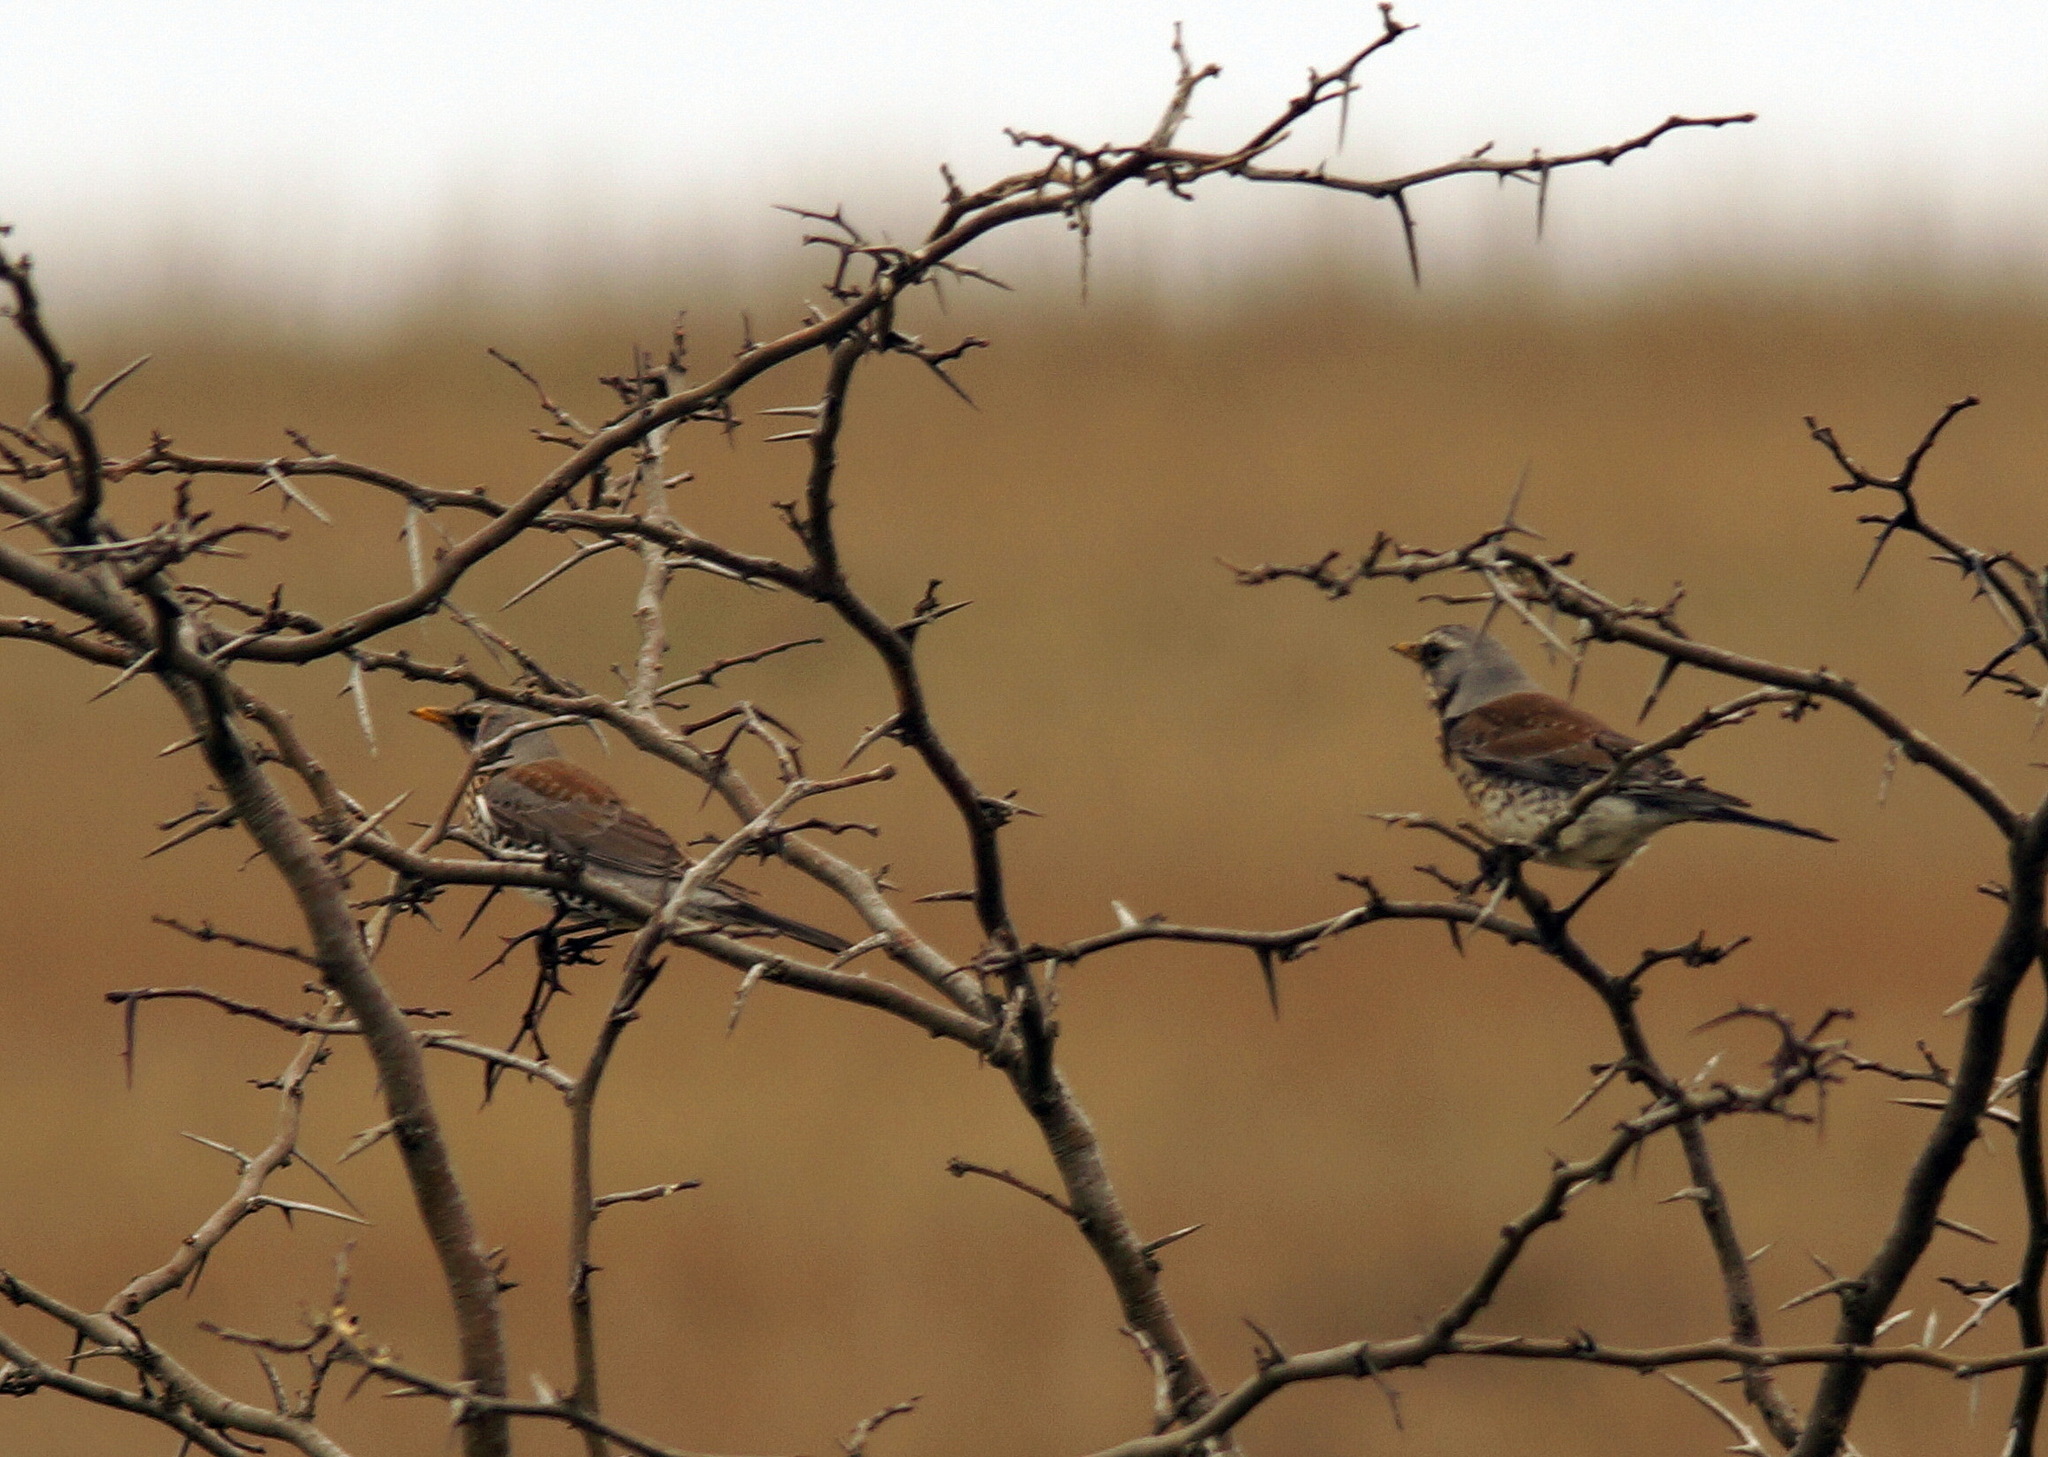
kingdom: Animalia
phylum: Chordata
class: Aves
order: Passeriformes
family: Turdidae
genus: Turdus
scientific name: Turdus pilaris
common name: Fieldfare
